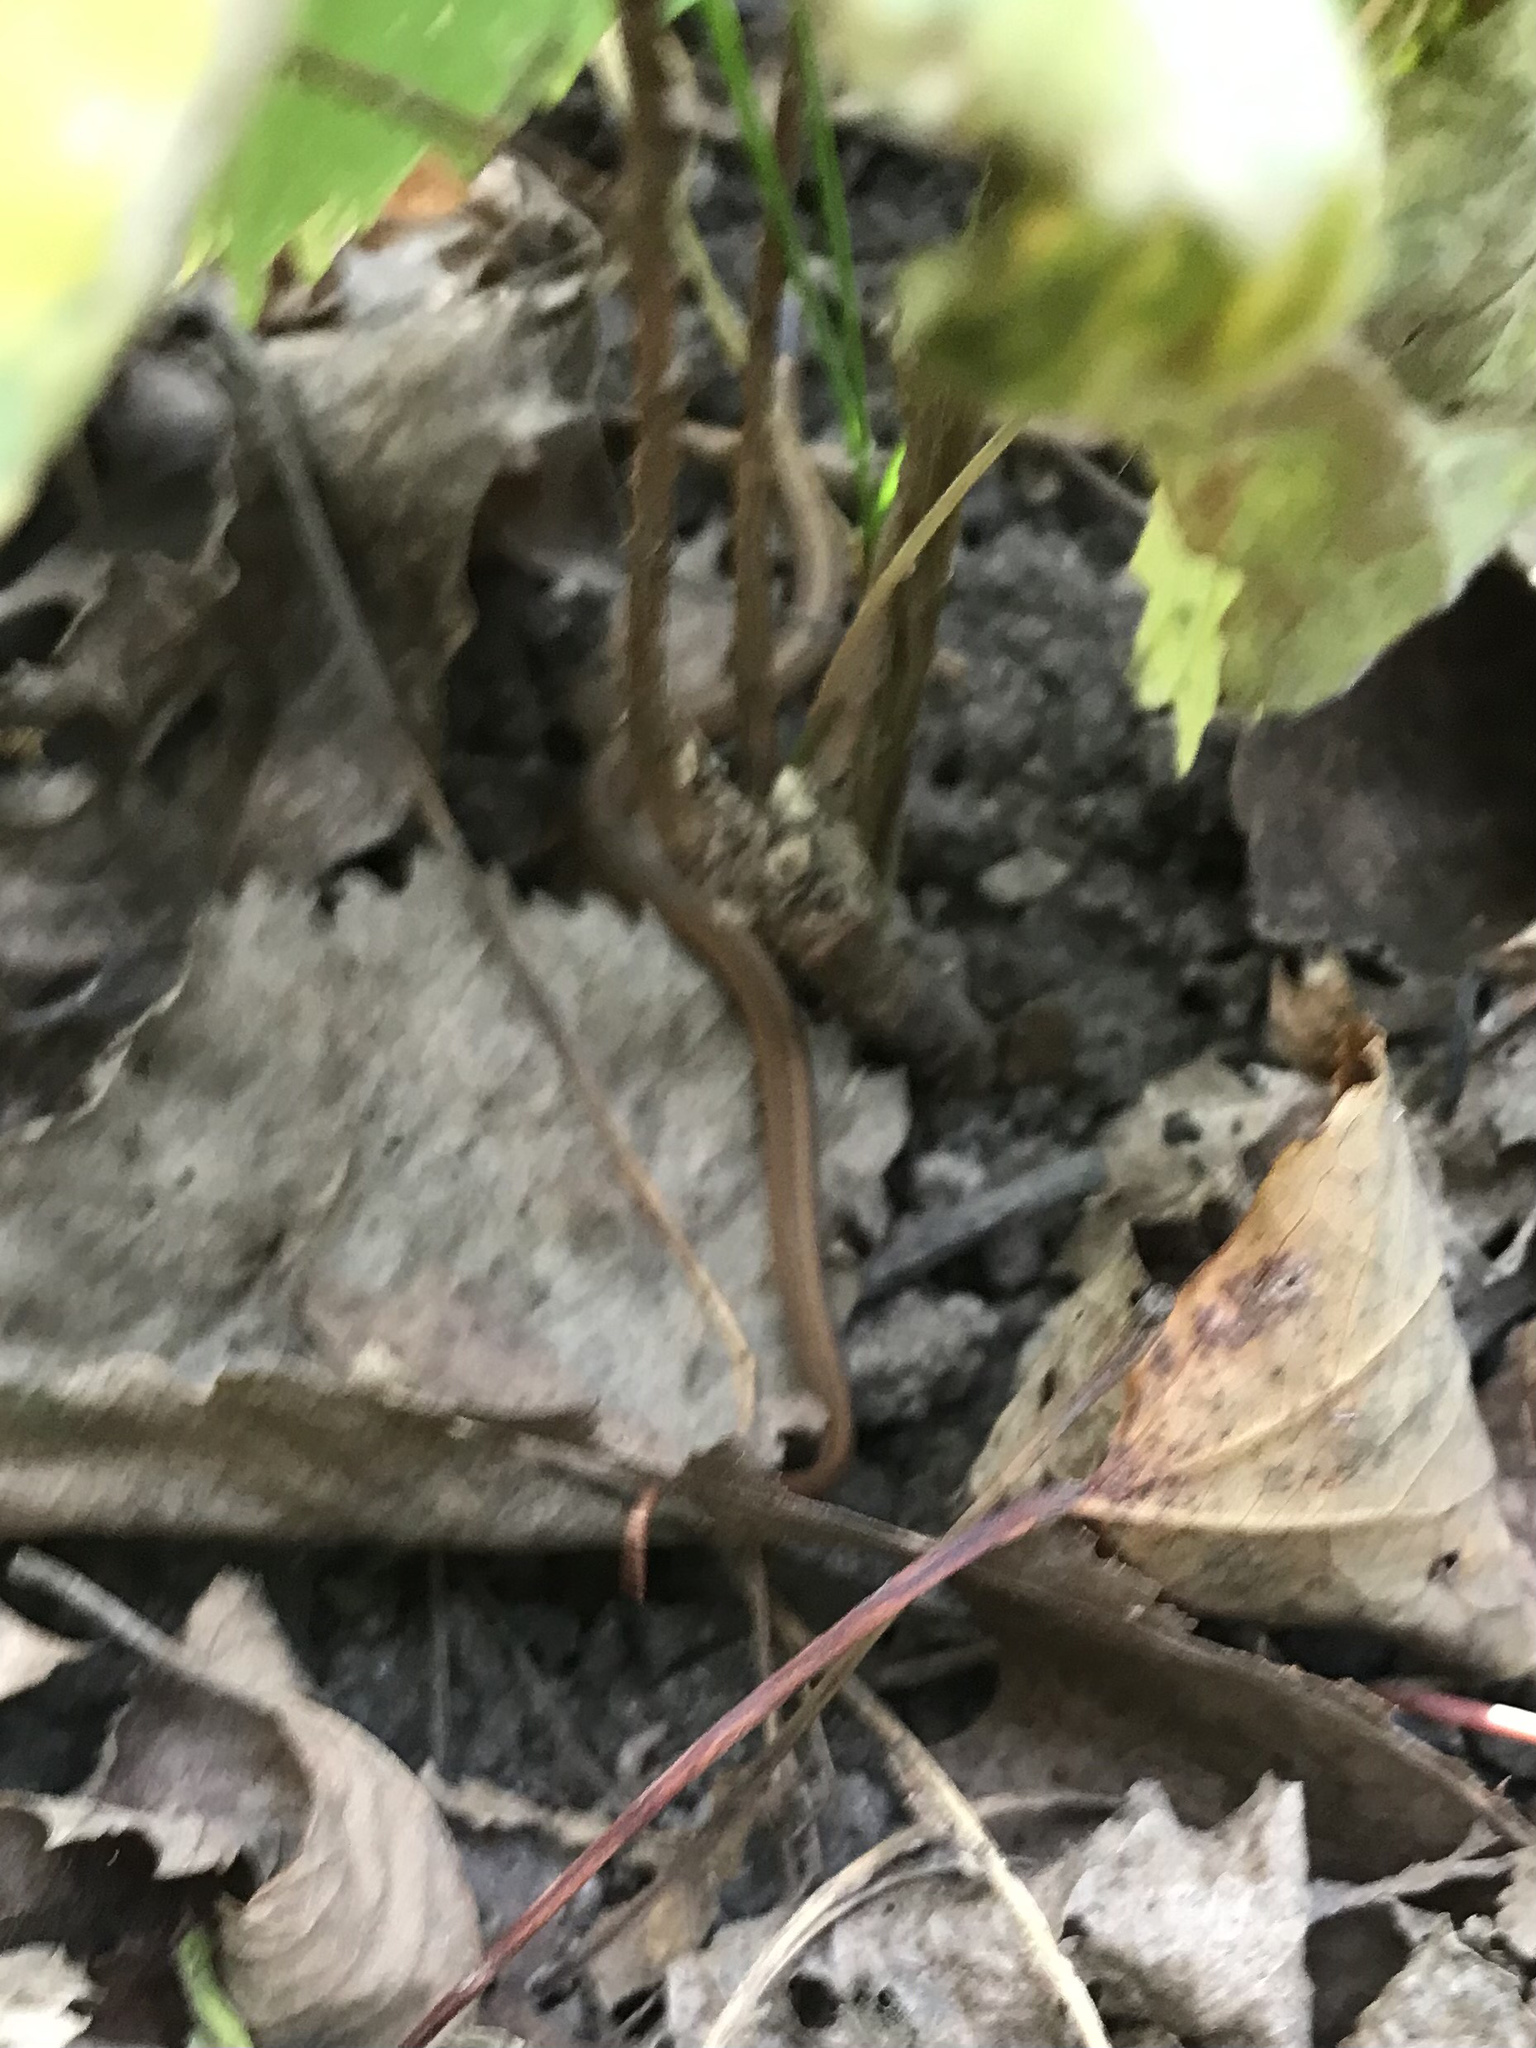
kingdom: Animalia
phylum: Chordata
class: Squamata
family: Colubridae
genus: Storeria
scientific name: Storeria occipitomaculata
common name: Redbelly snake
